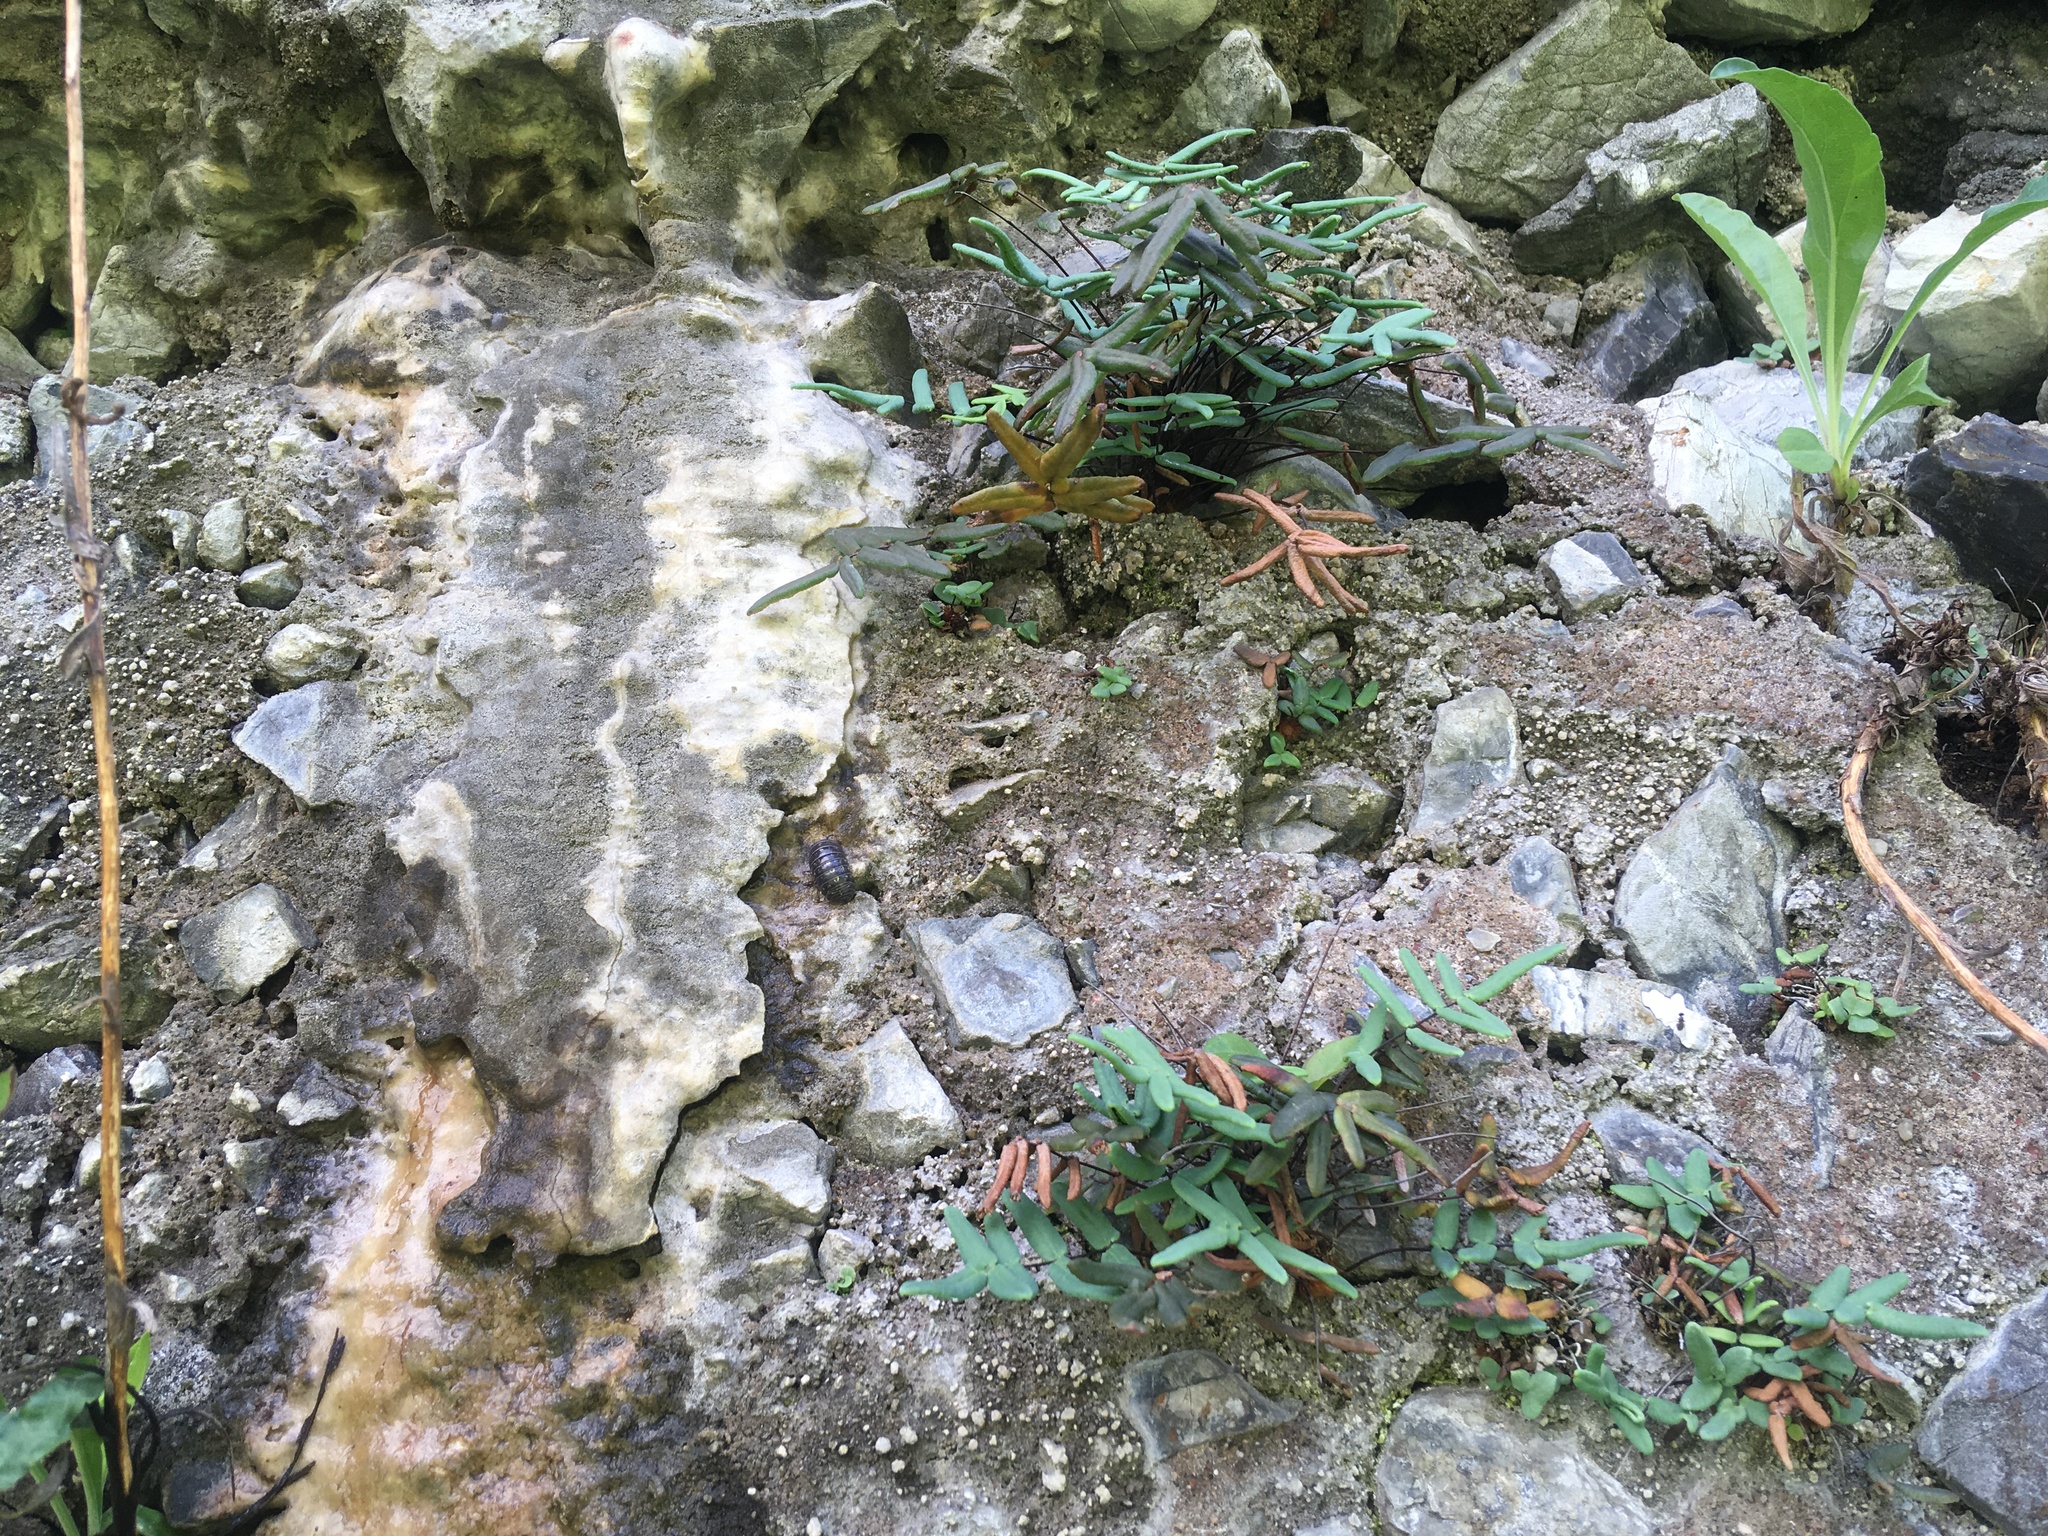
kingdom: Plantae
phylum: Tracheophyta
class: Polypodiopsida
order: Polypodiales
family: Pteridaceae
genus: Pellaea
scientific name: Pellaea glabella
